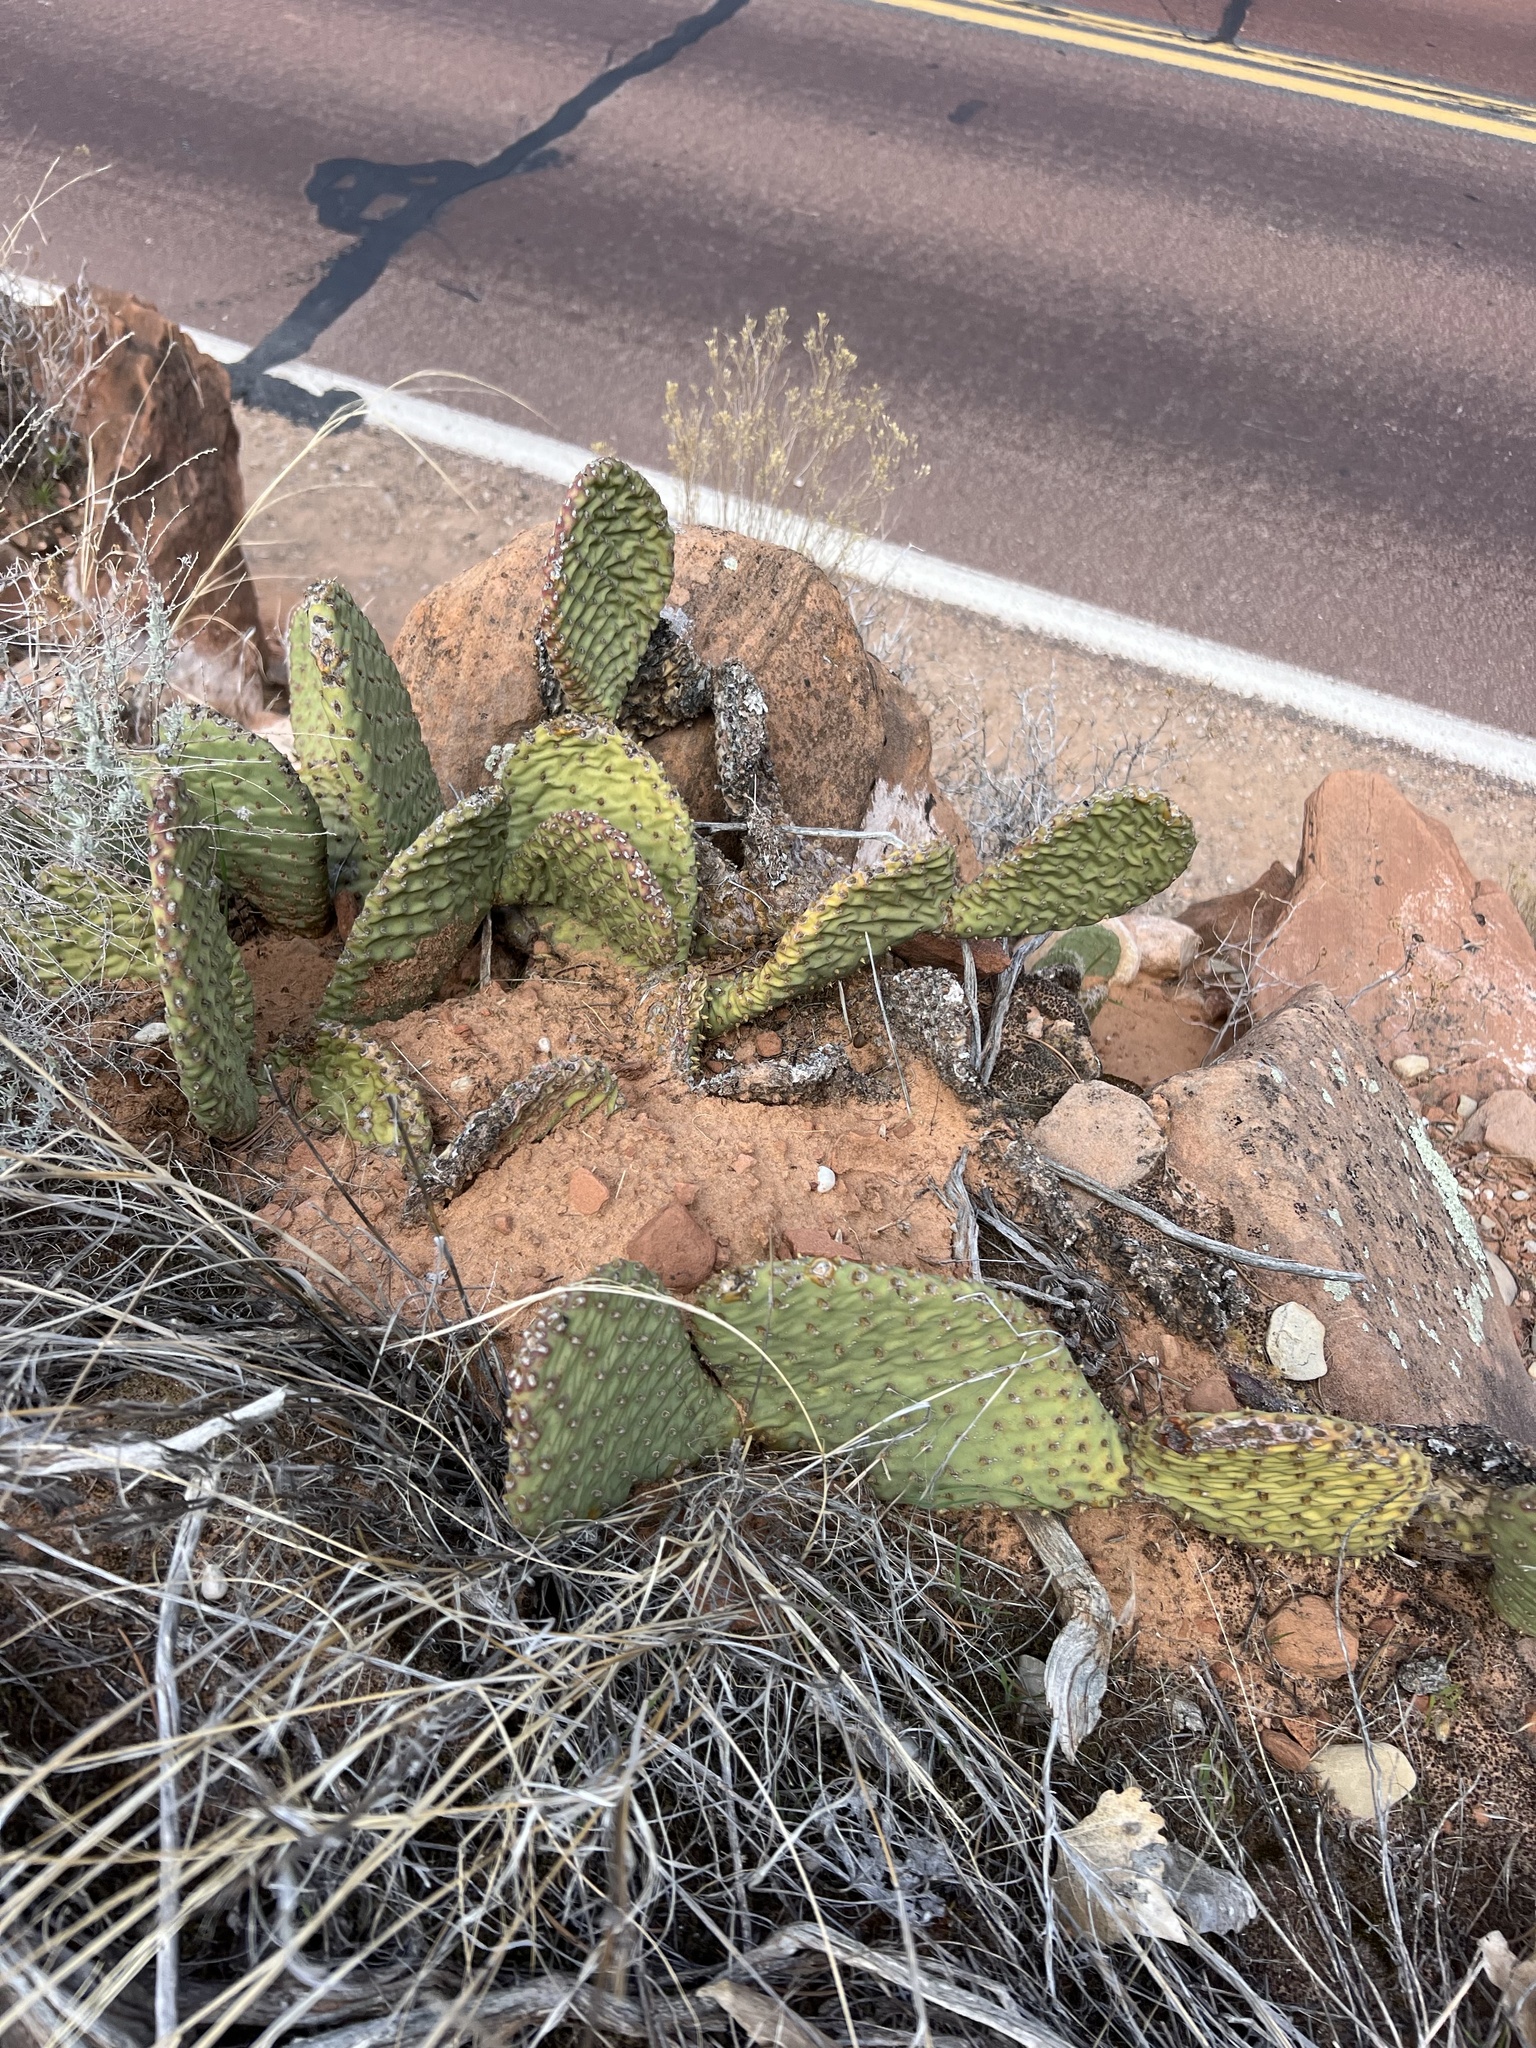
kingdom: Plantae
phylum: Tracheophyta
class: Magnoliopsida
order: Caryophyllales
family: Cactaceae
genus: Opuntia
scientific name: Opuntia aurea
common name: Golden prickly-pear
